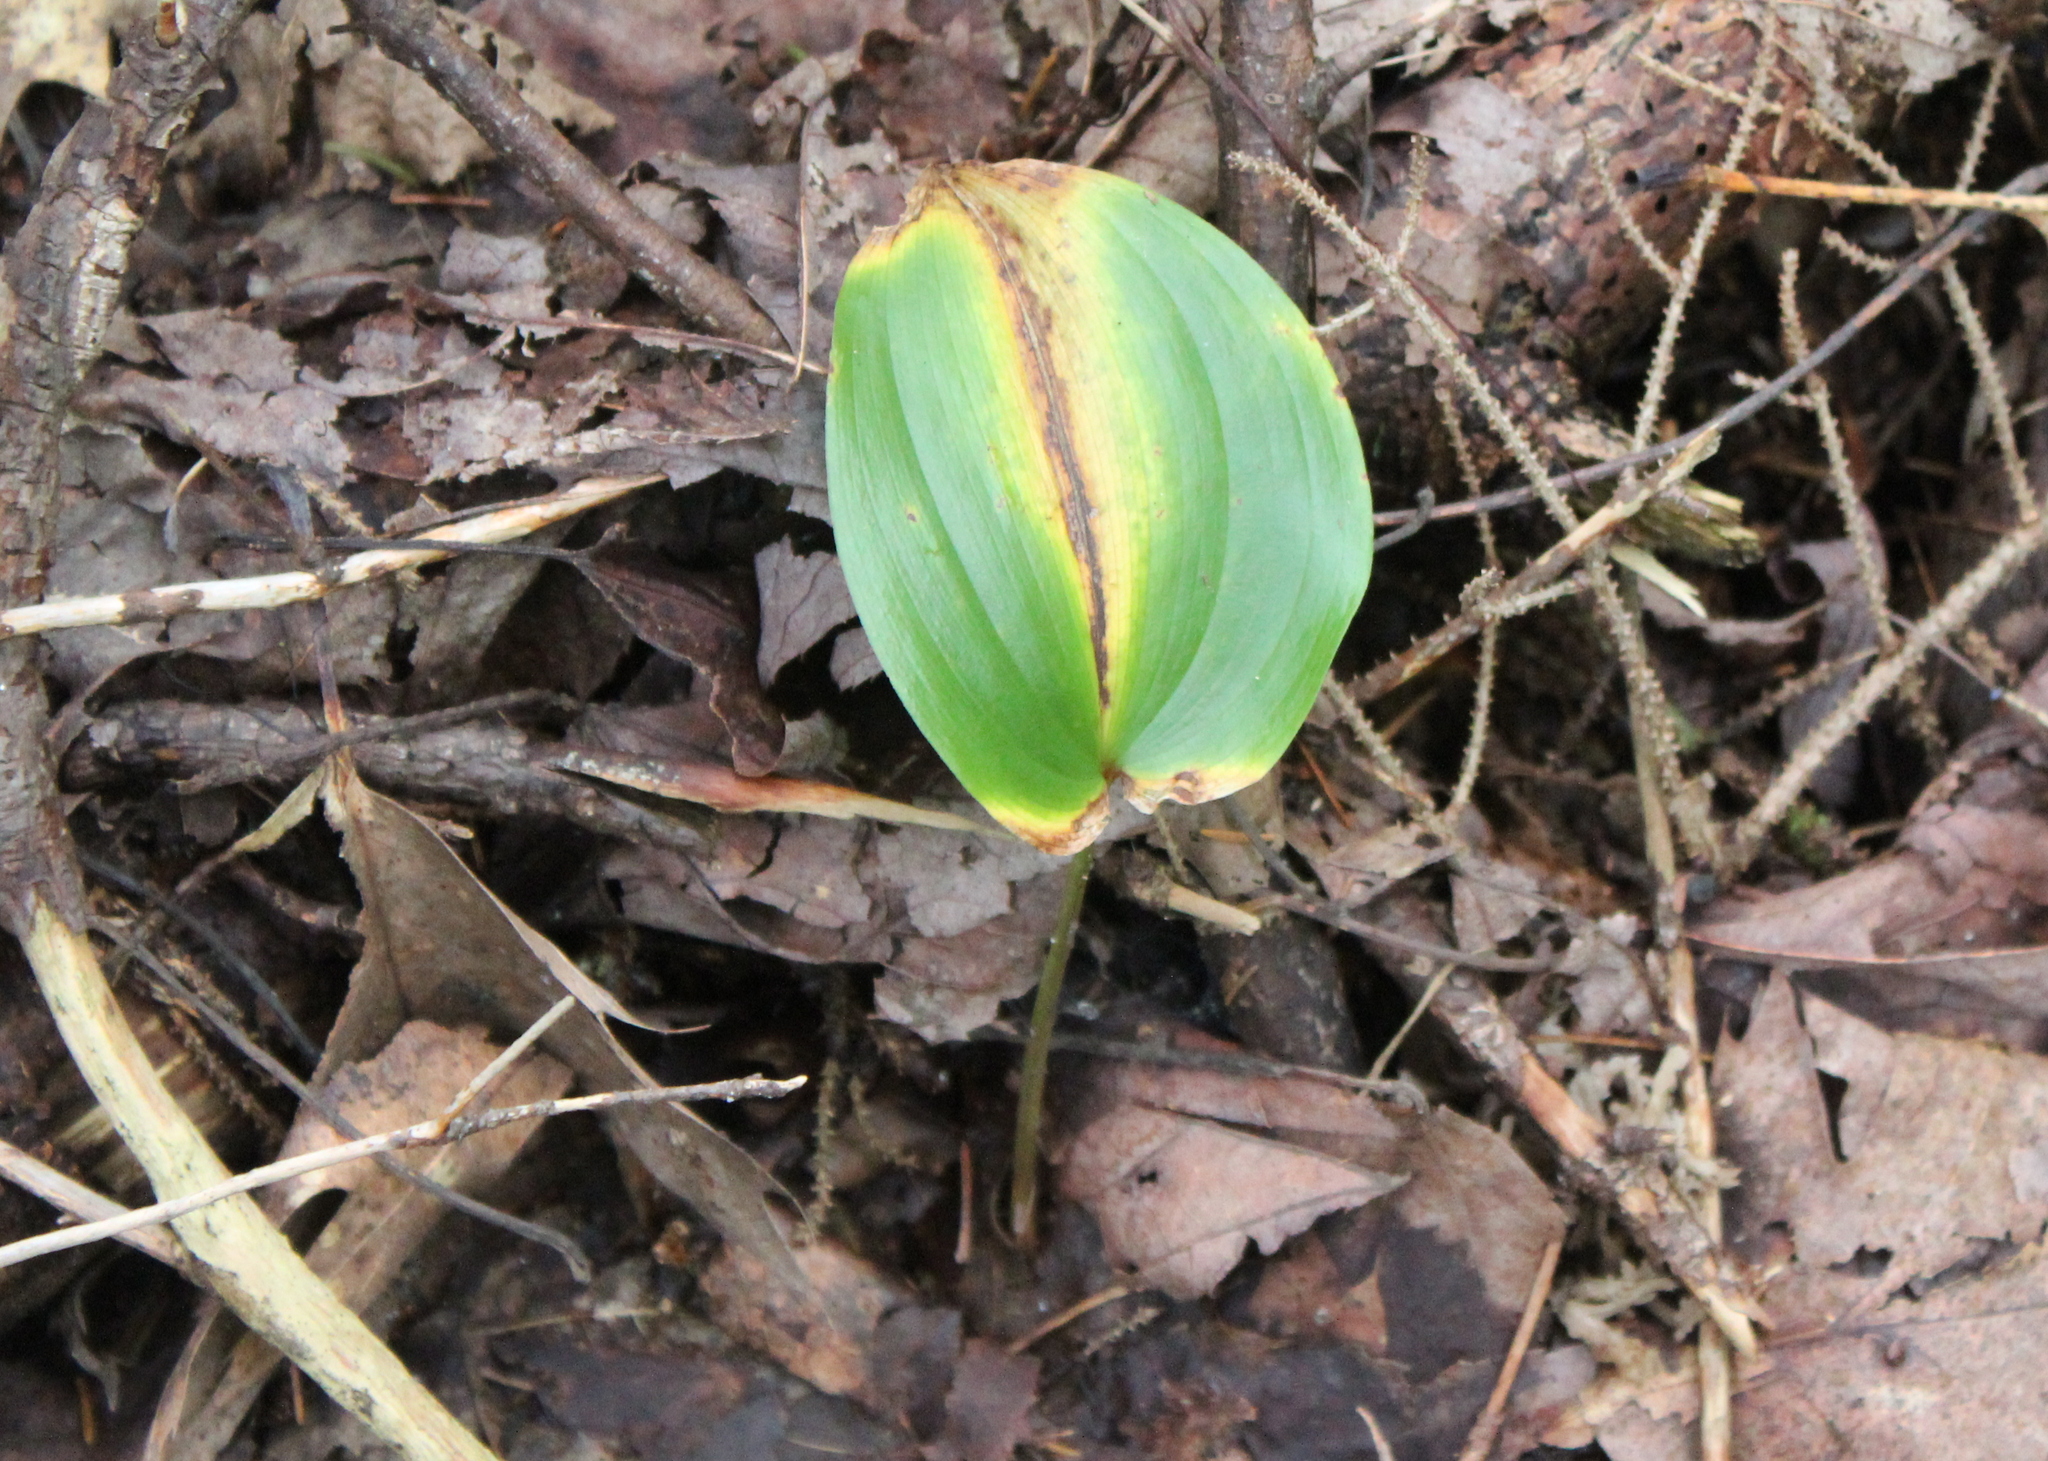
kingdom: Plantae
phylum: Tracheophyta
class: Liliopsida
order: Asparagales
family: Asparagaceae
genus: Maianthemum
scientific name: Maianthemum canadense
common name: False lily-of-the-valley
